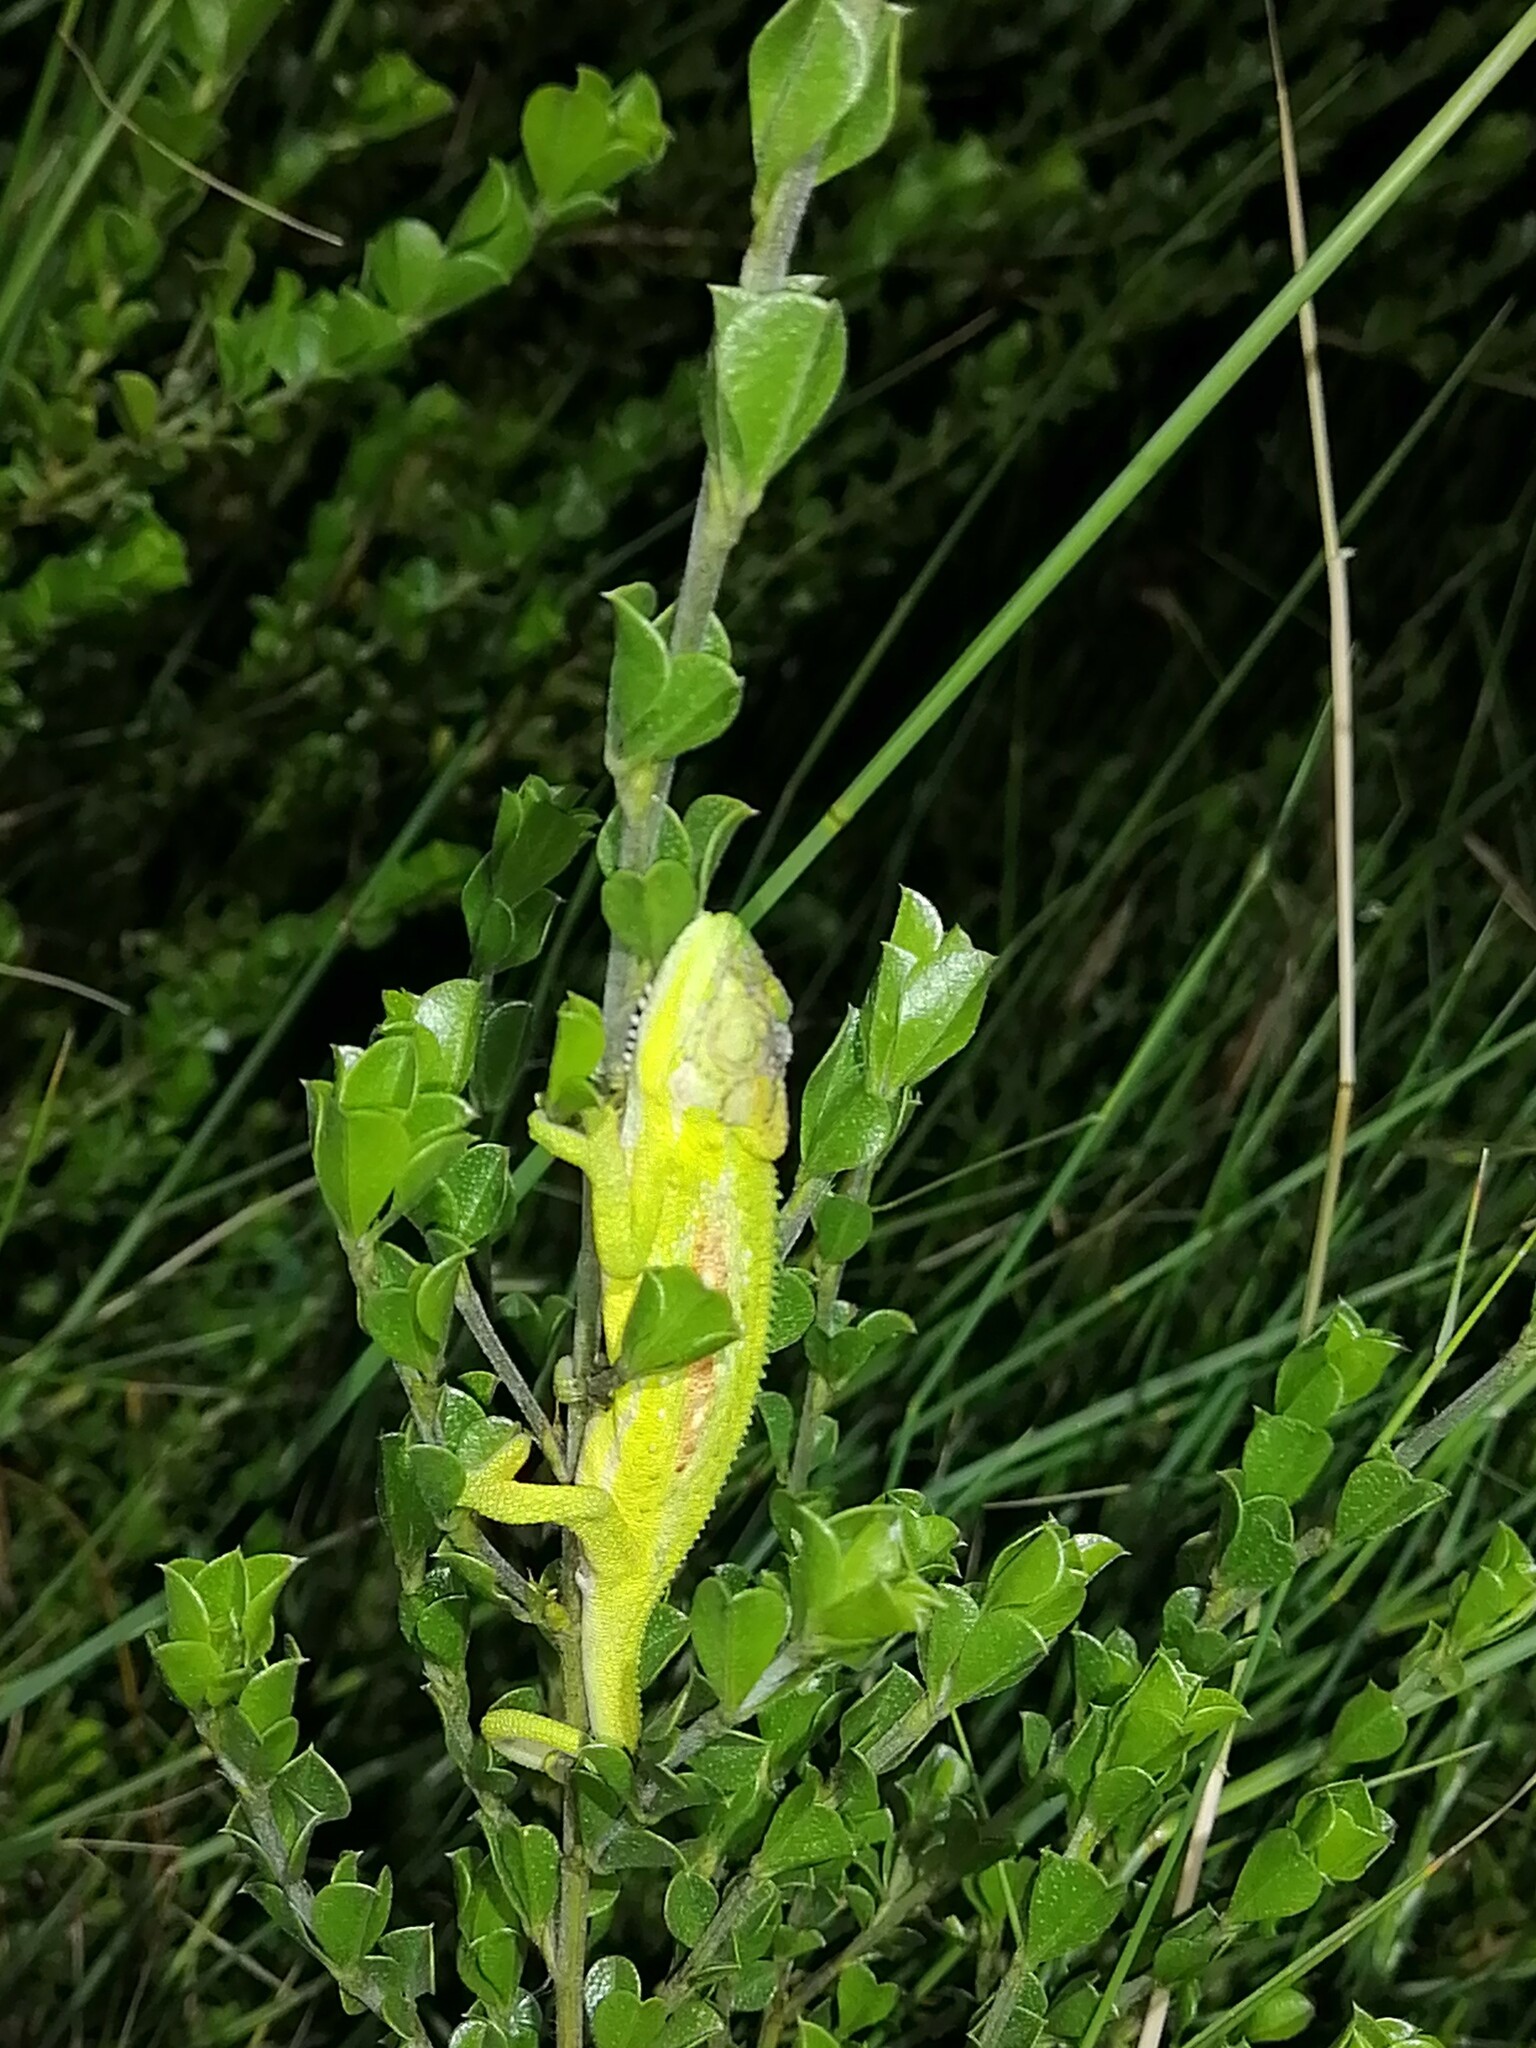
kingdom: Animalia
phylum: Chordata
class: Squamata
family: Chamaeleonidae
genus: Bradypodion
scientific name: Bradypodion pumilum
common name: Cape dwarf chameleon
